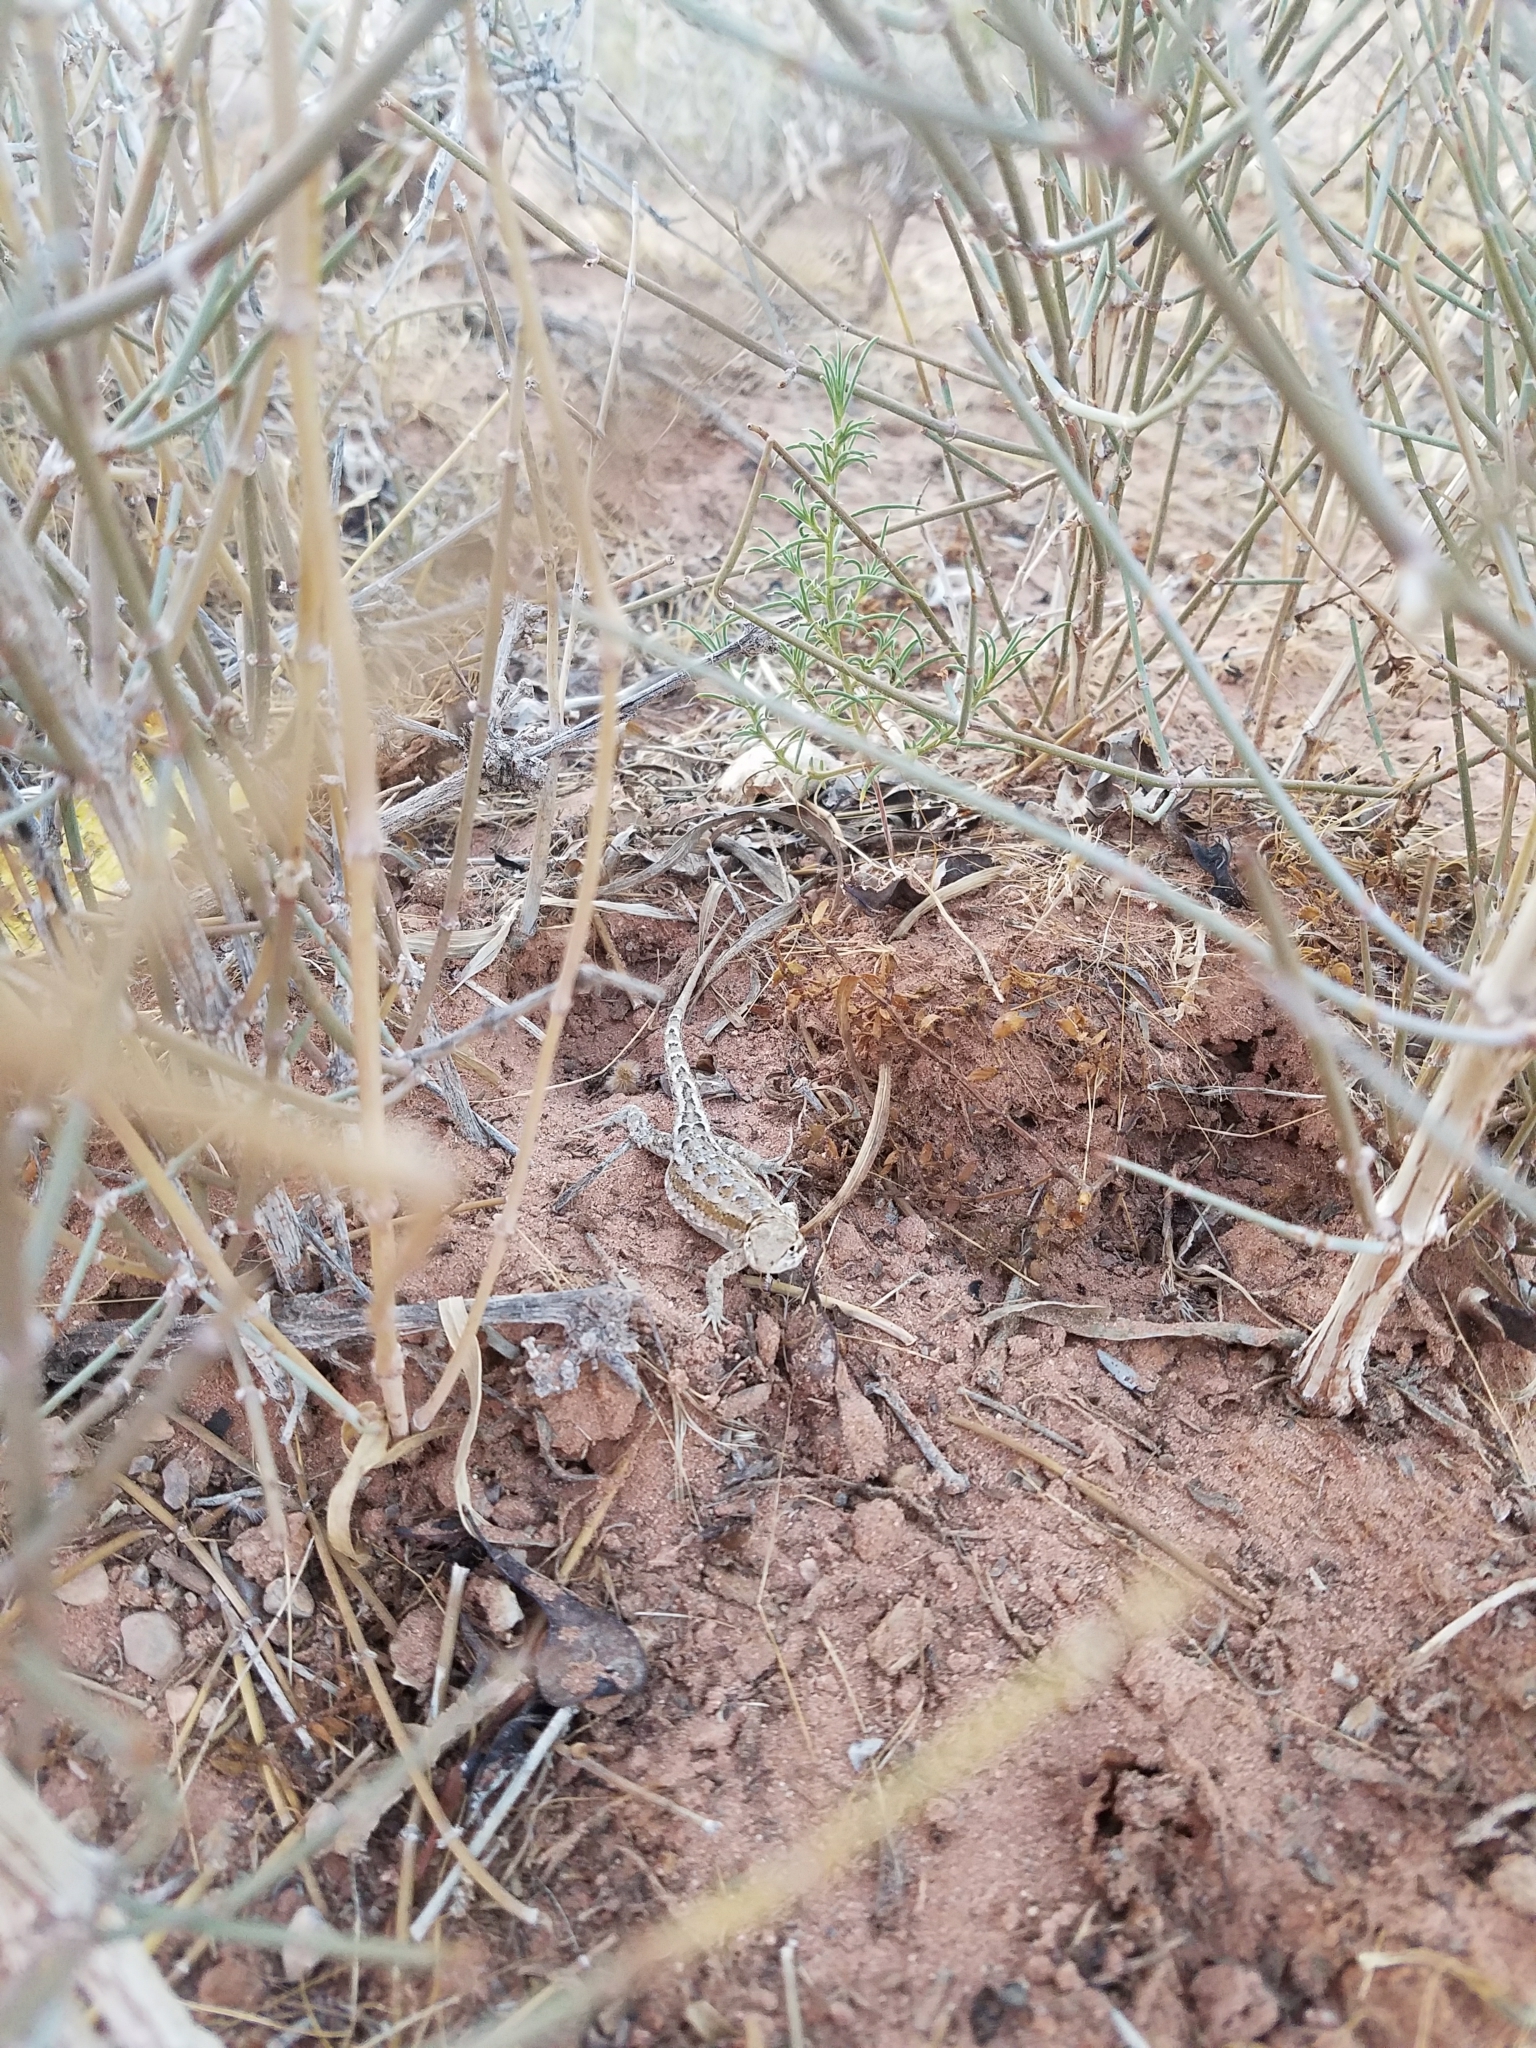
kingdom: Animalia
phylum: Chordata
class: Squamata
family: Phrynosomatidae
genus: Uta
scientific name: Uta stansburiana
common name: Side-blotched lizard
